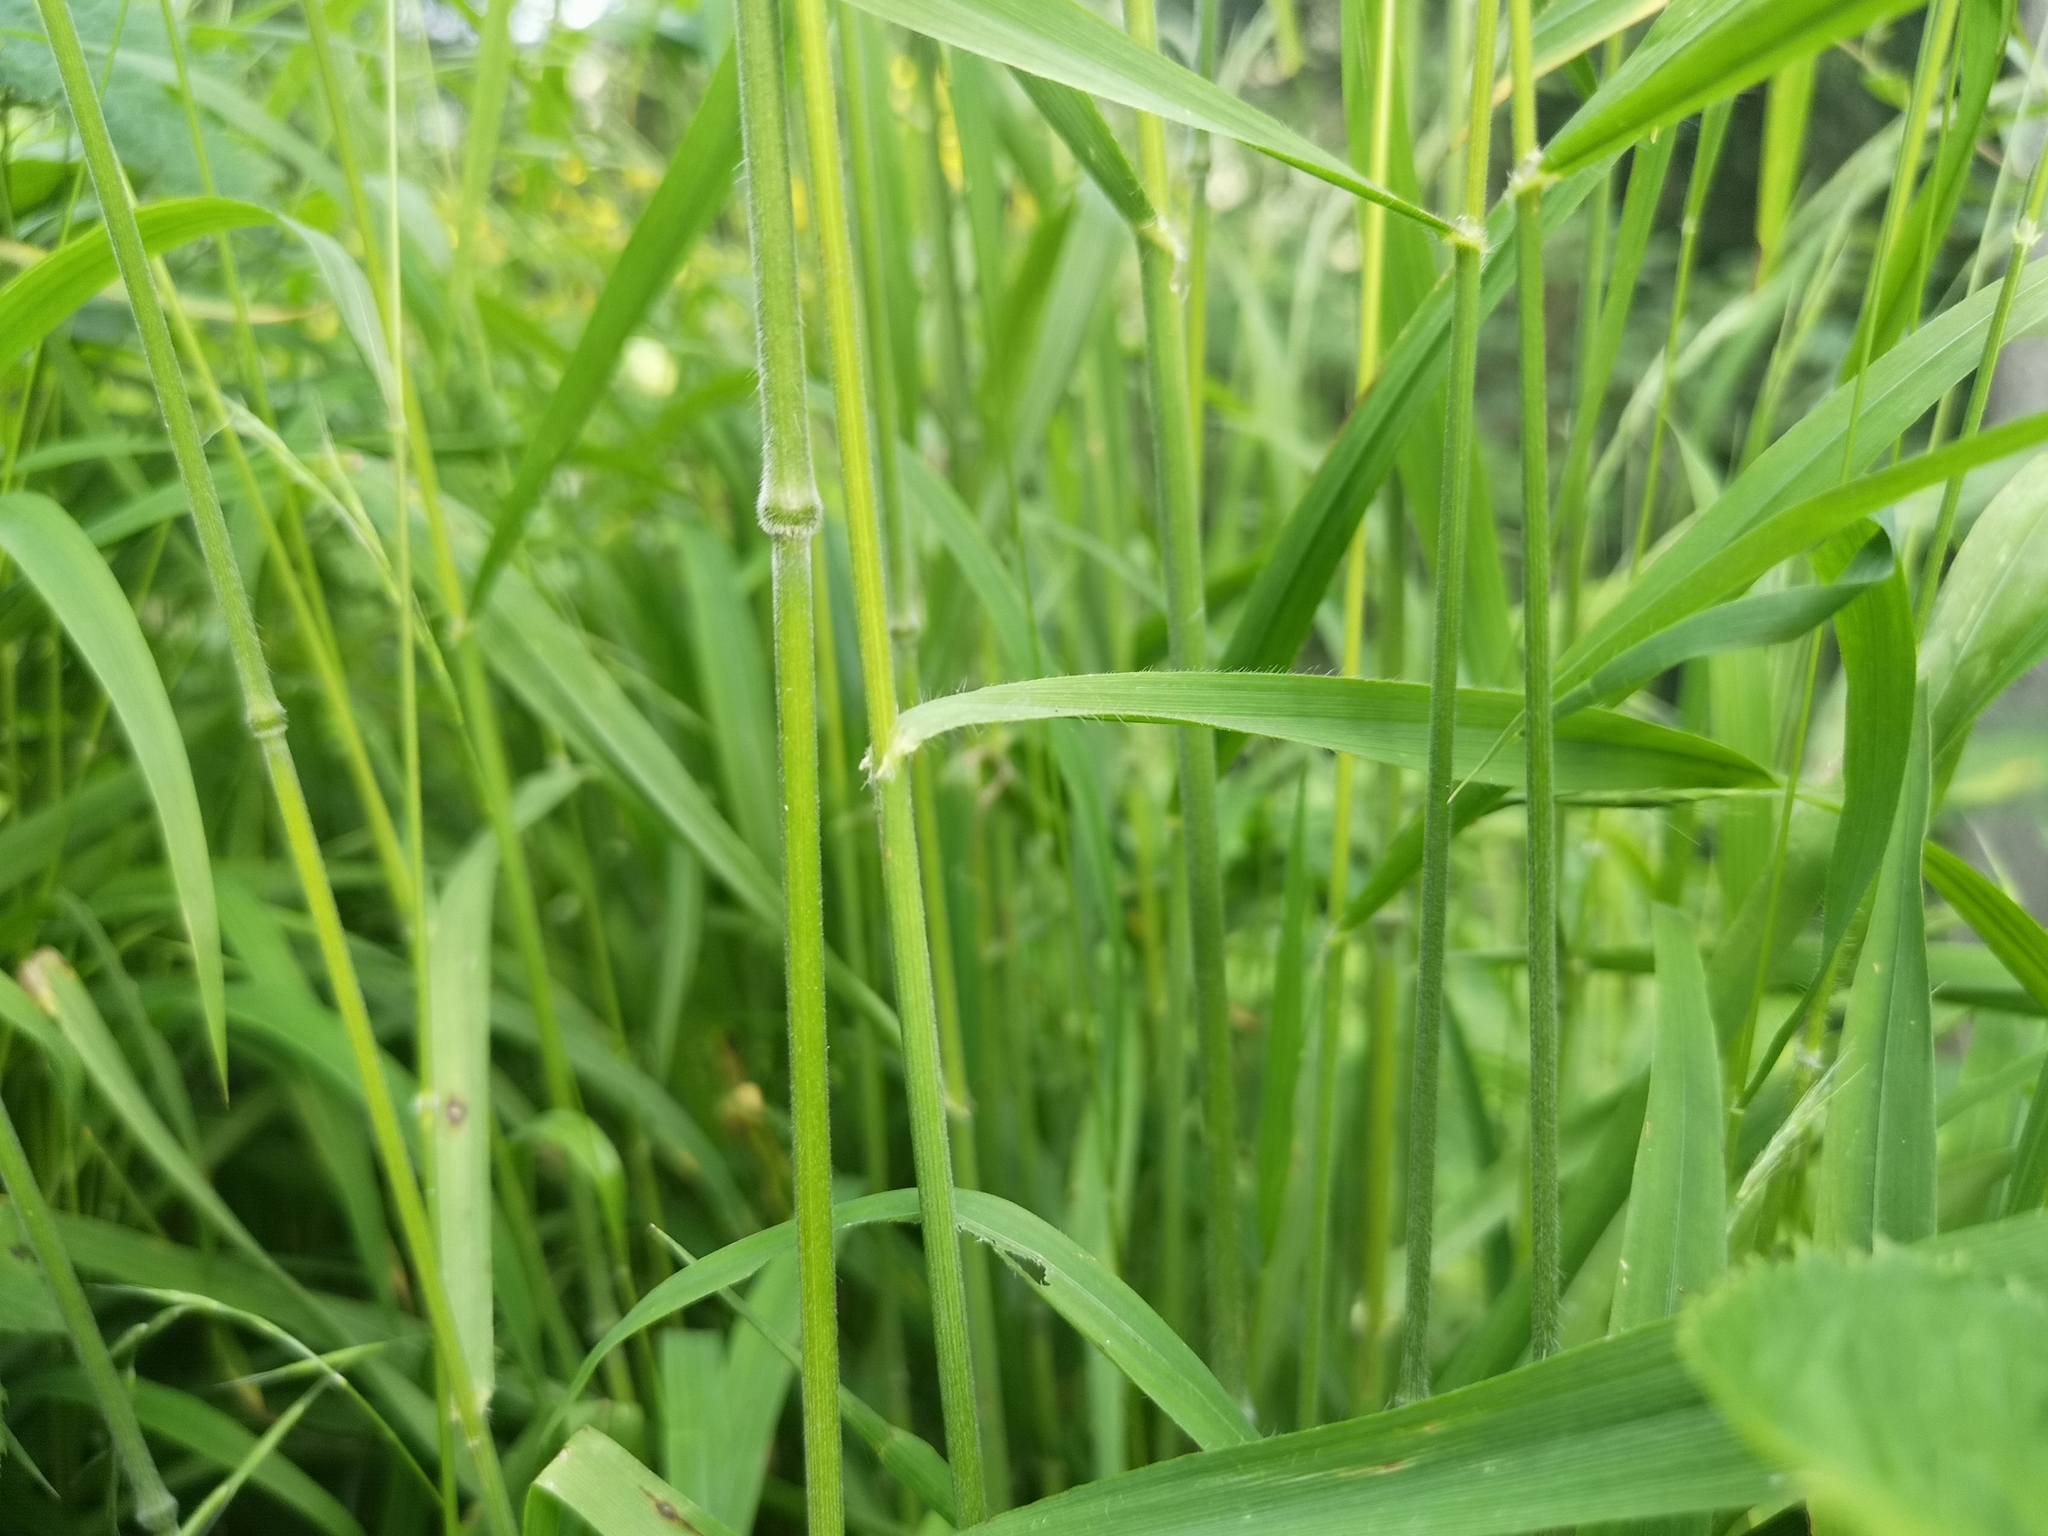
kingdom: Plantae
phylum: Tracheophyta
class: Liliopsida
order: Poales
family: Poaceae
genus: Bromus
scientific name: Bromus benekenii
